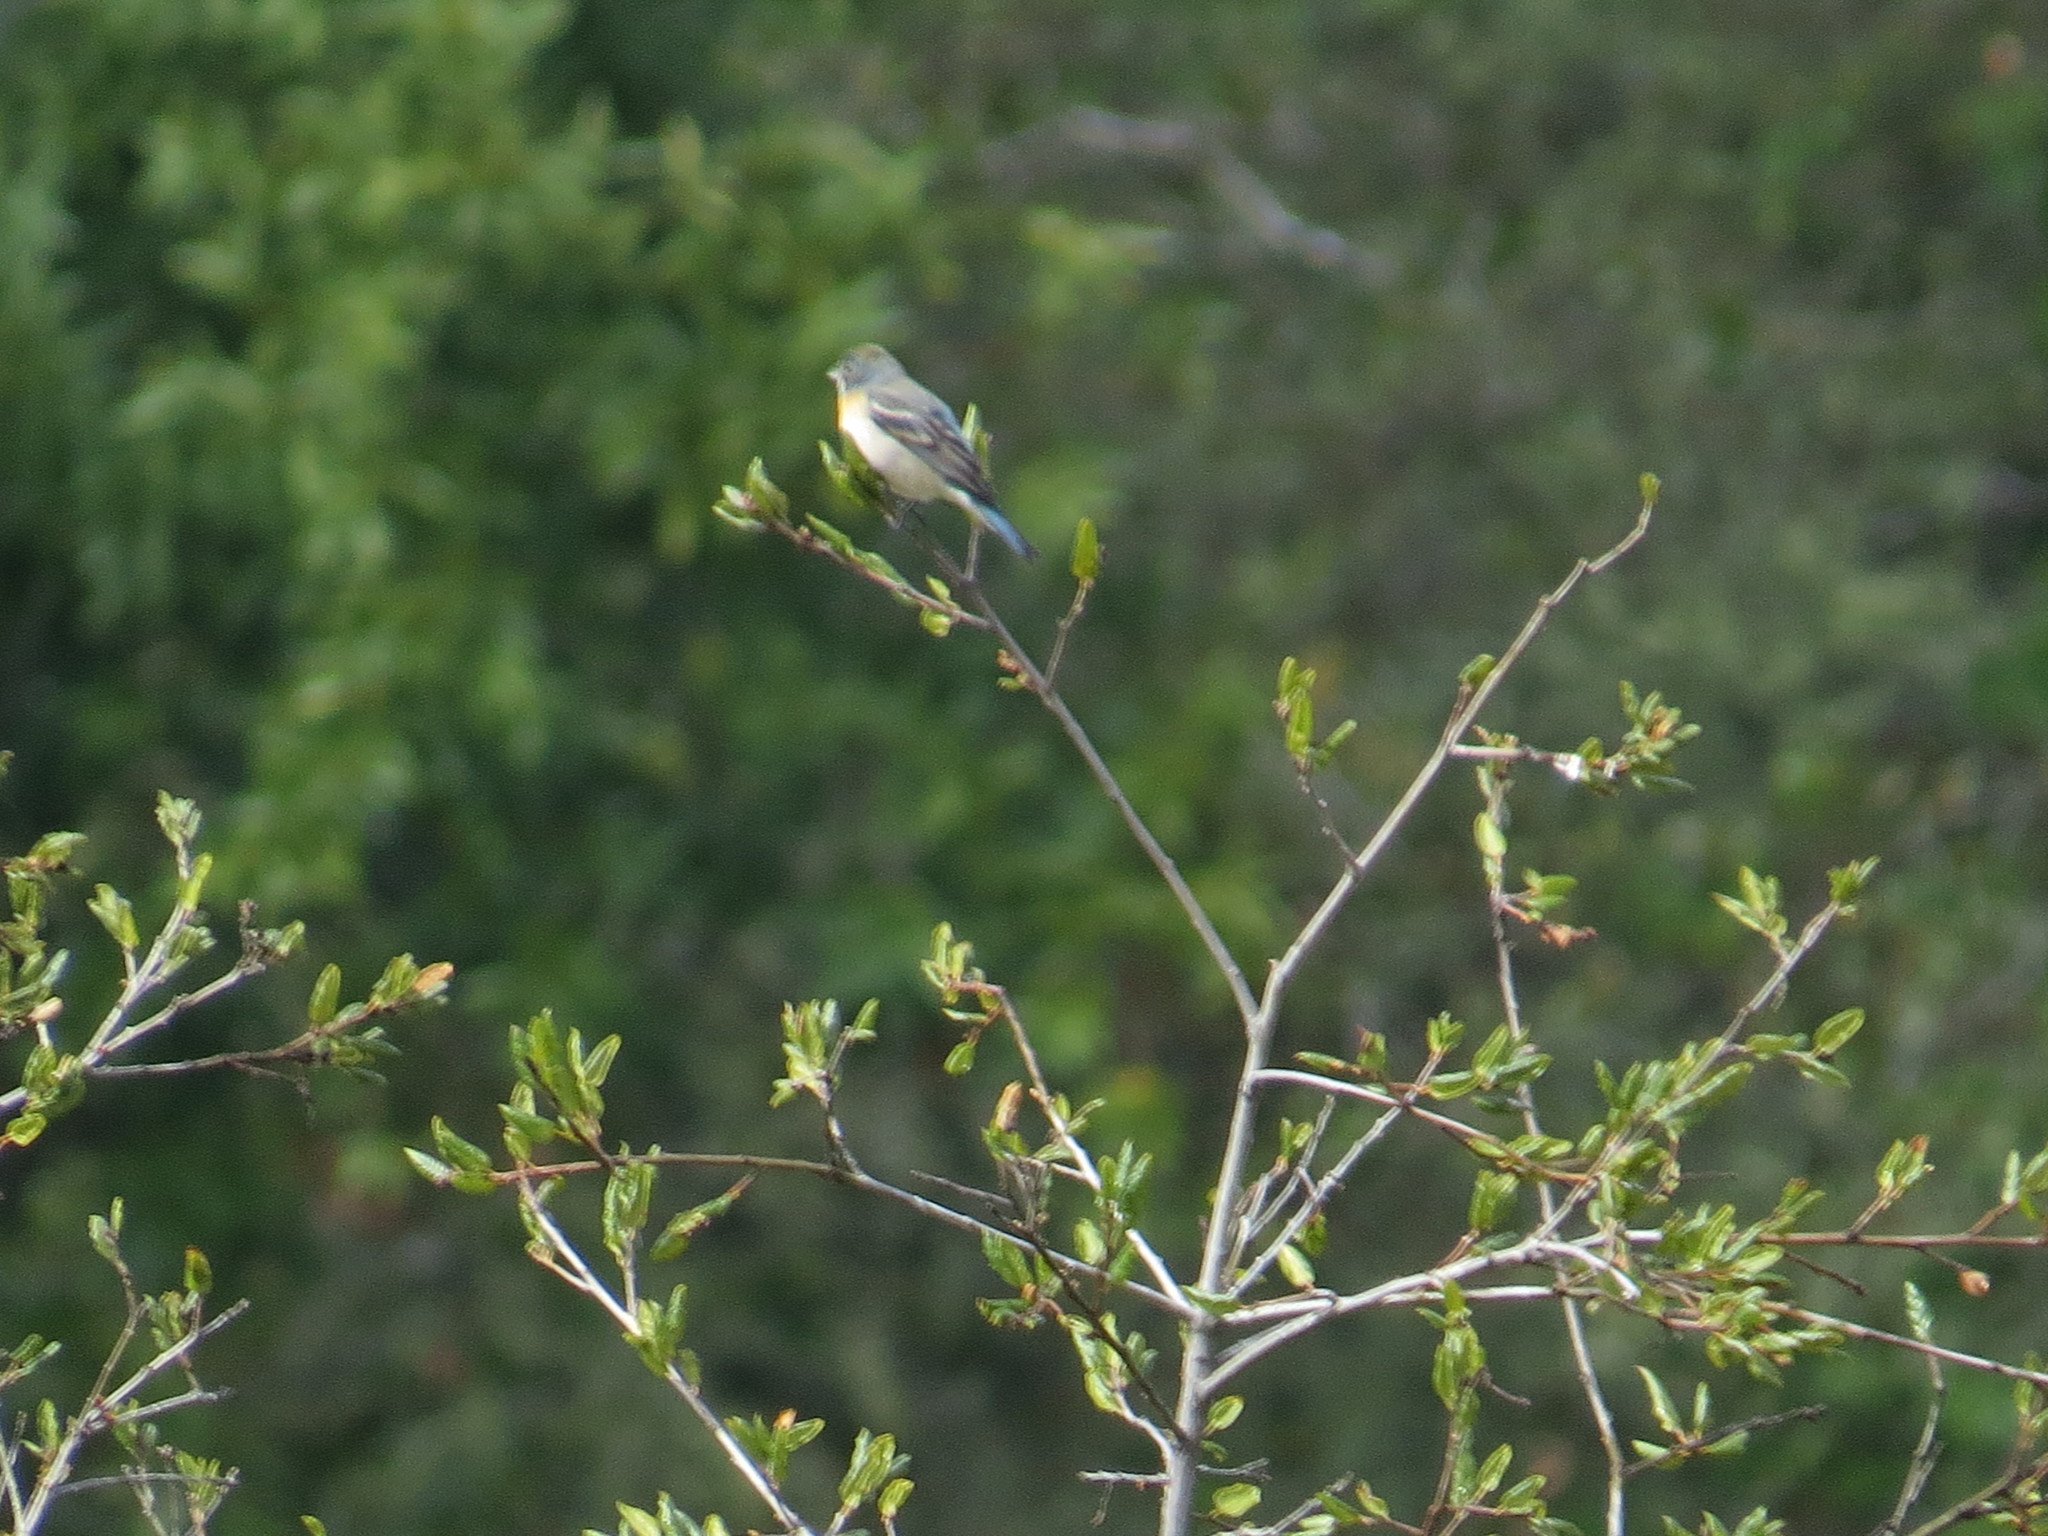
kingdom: Animalia
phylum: Chordata
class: Aves
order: Passeriformes
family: Cardinalidae
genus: Passerina
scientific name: Passerina amoena
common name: Lazuli bunting
